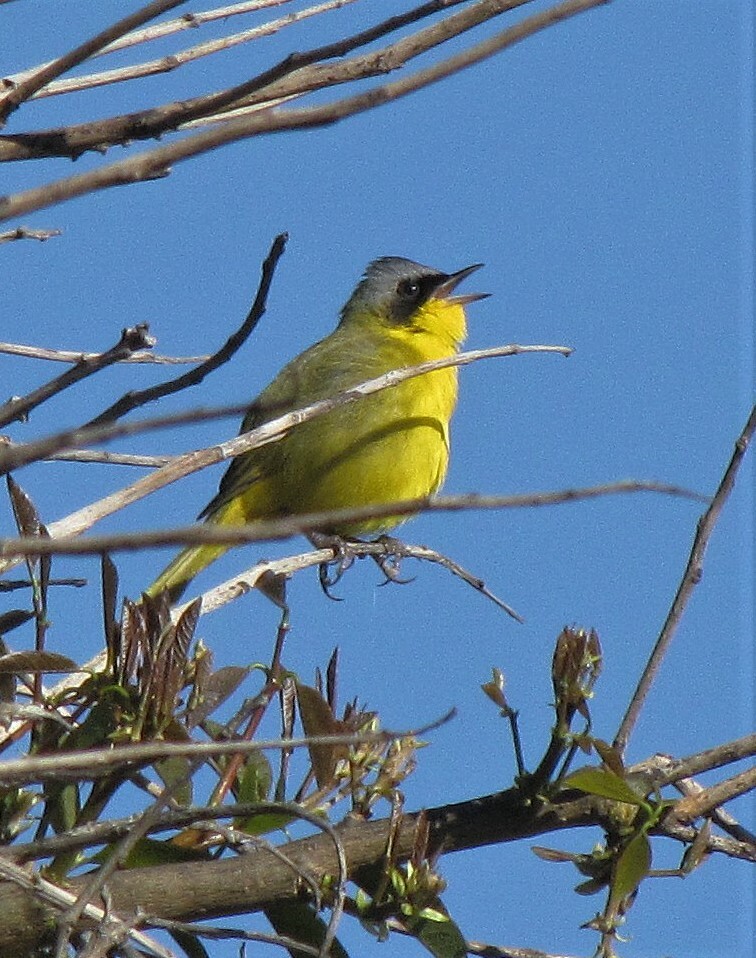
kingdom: Animalia
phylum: Chordata
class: Aves
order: Passeriformes
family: Parulidae
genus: Geothlypis
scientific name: Geothlypis velata
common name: Southern yellowthroat
